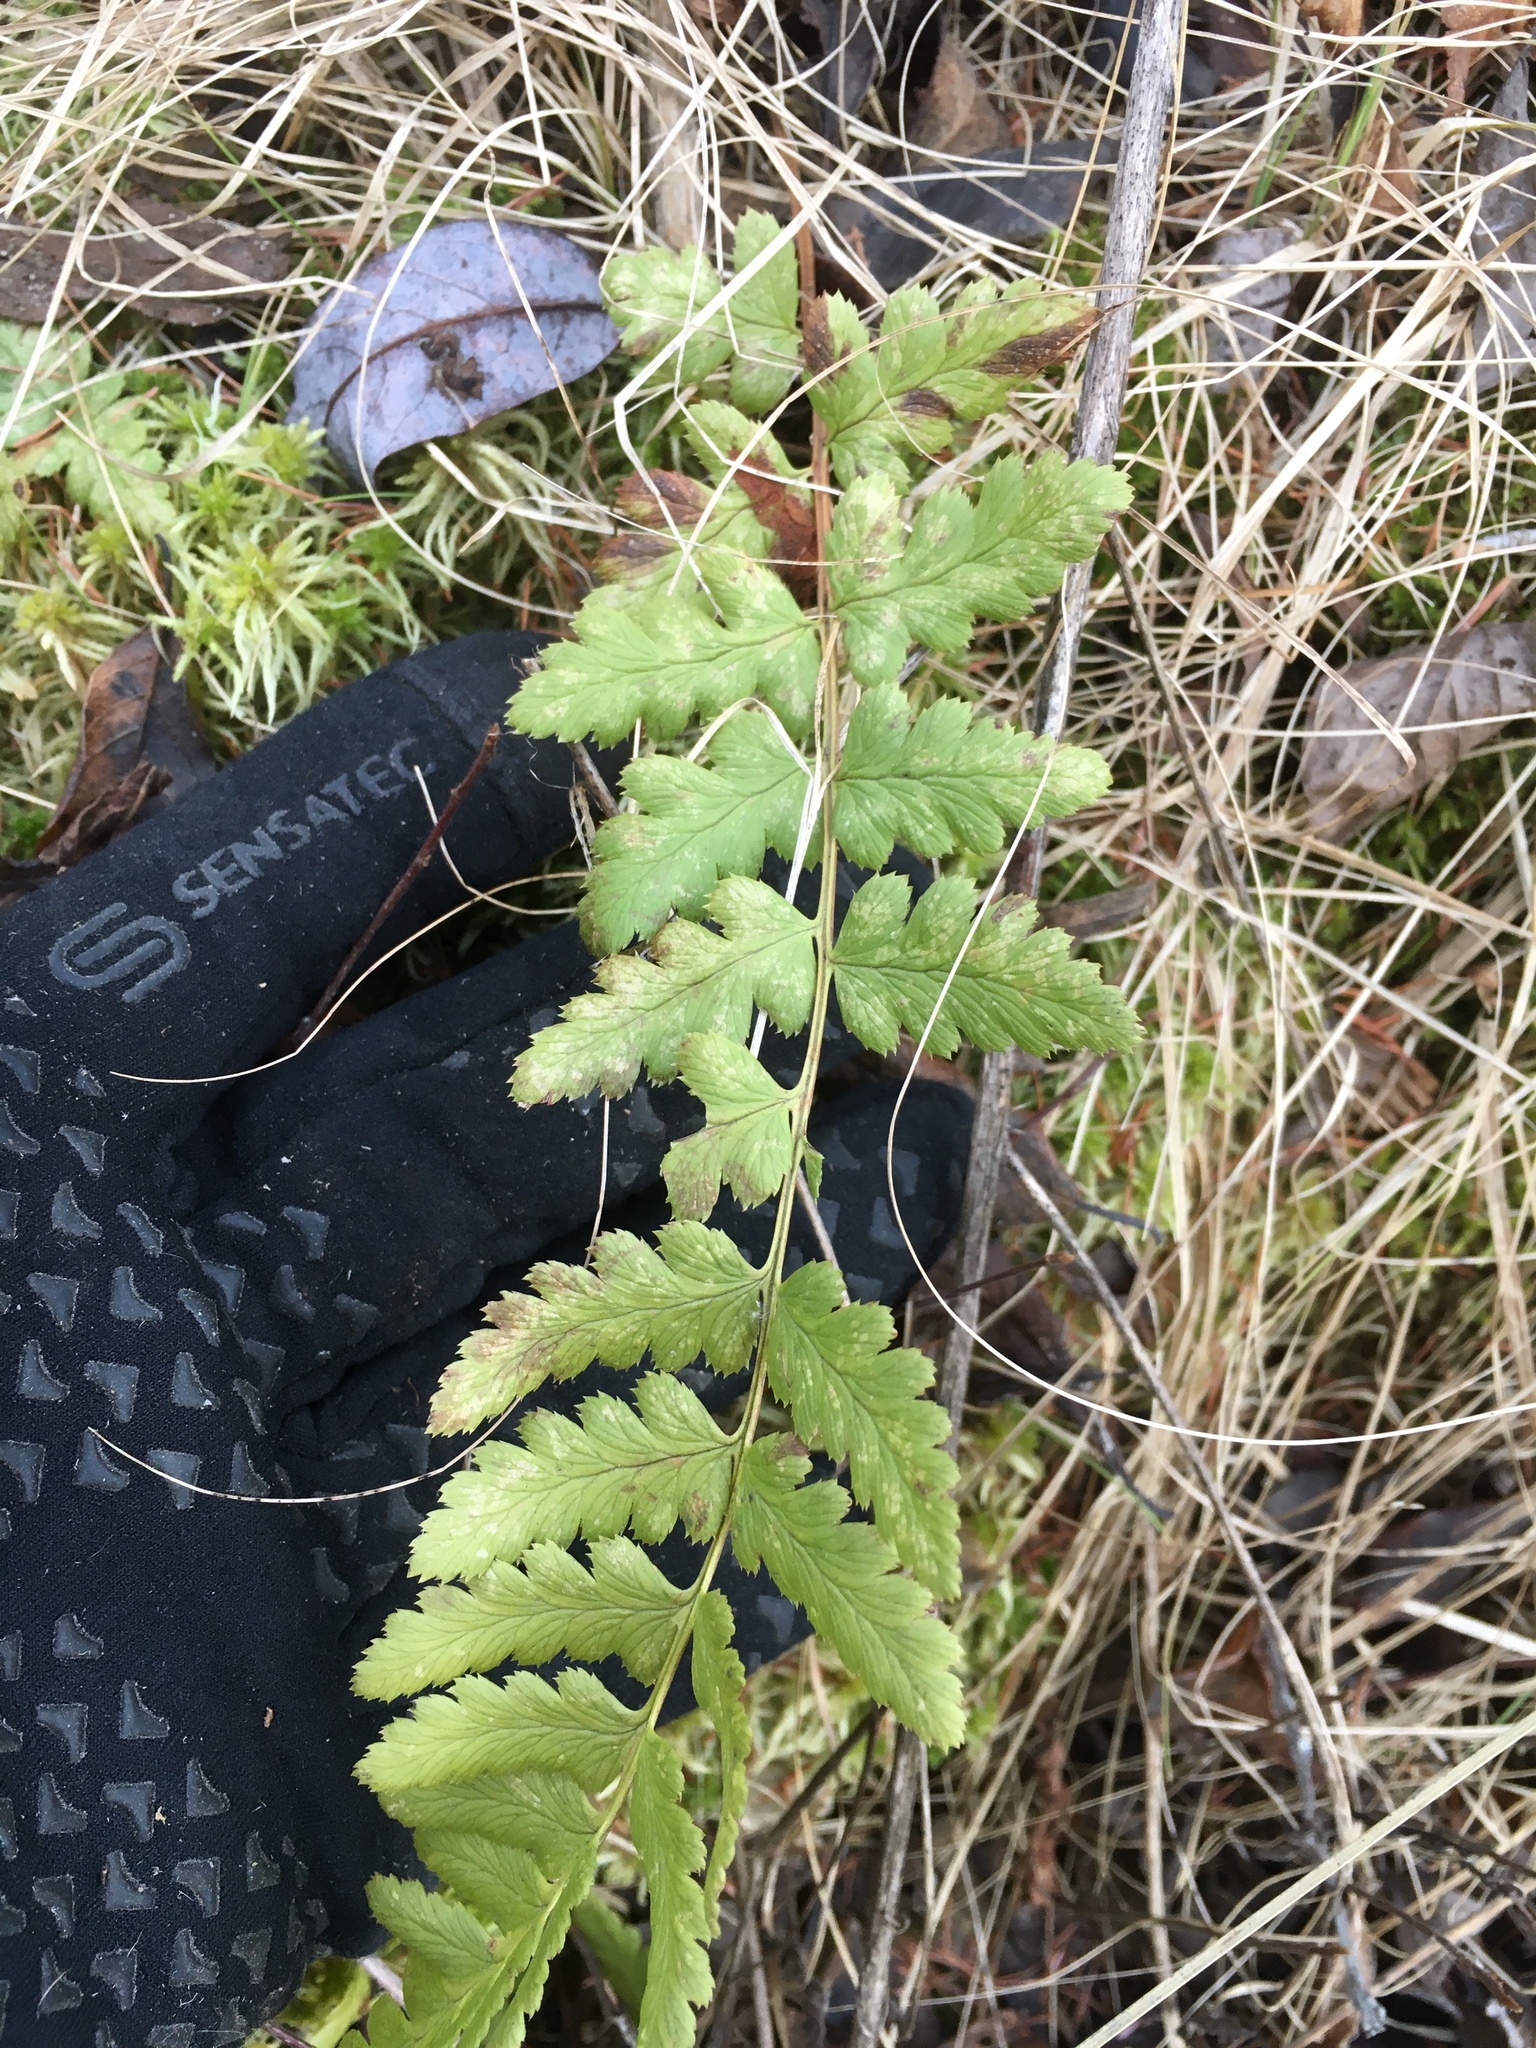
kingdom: Plantae
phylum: Tracheophyta
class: Polypodiopsida
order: Polypodiales
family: Dryopteridaceae
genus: Dryopteris
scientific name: Dryopteris cristata
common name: Crested wood fern
